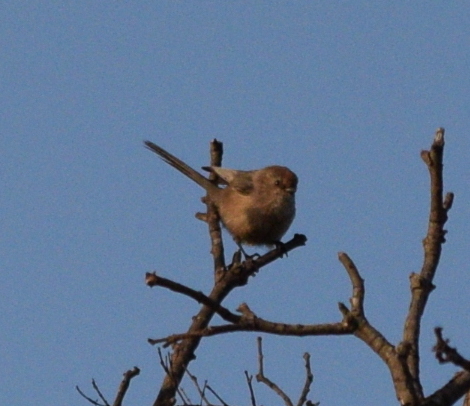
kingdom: Animalia
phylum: Chordata
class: Aves
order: Passeriformes
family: Aegithalidae
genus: Psaltriparus
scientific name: Psaltriparus minimus
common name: American bushtit
